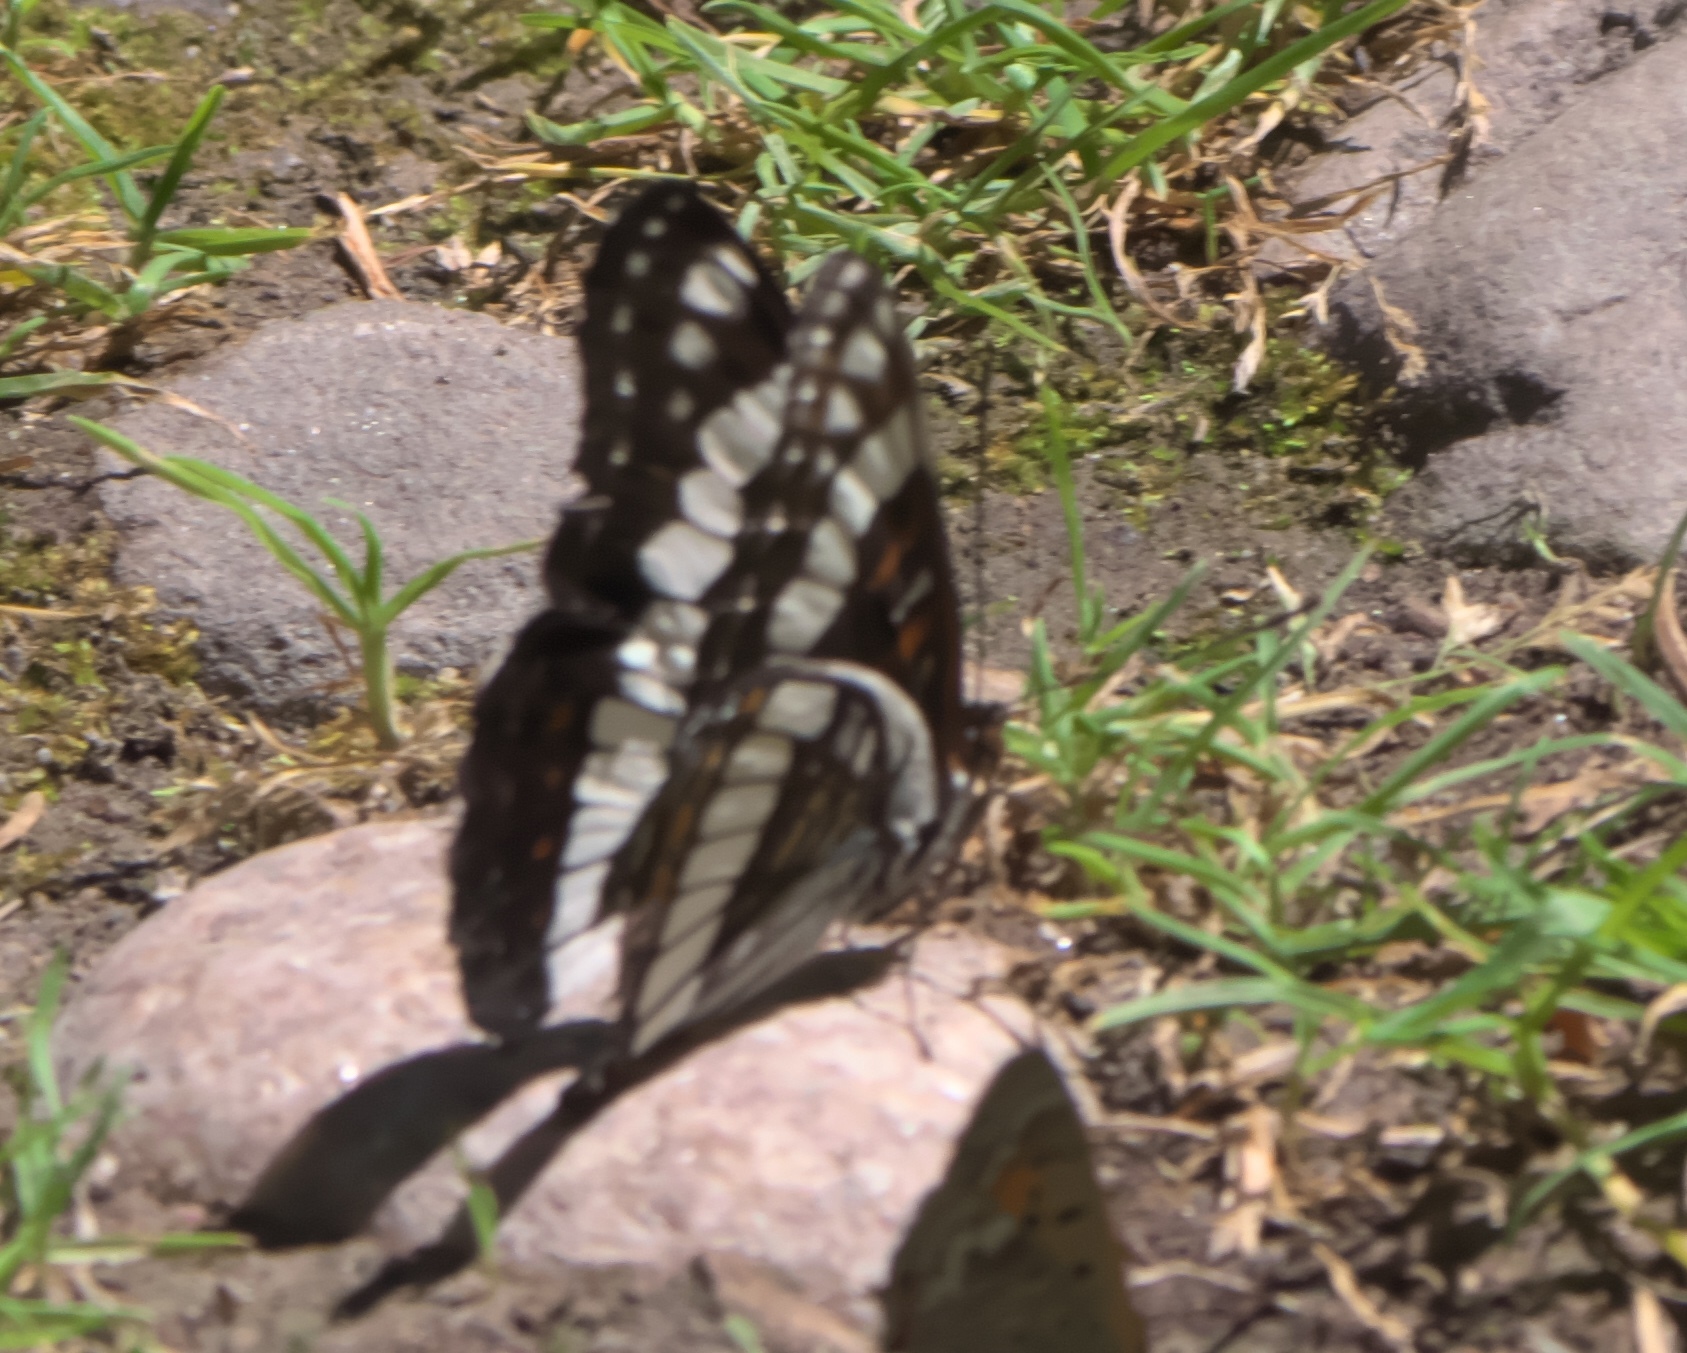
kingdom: Animalia
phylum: Arthropoda
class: Insecta
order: Lepidoptera
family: Nymphalidae
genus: Limenitis
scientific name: Limenitis weidemeyerii
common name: Weidemeyer's admiral
